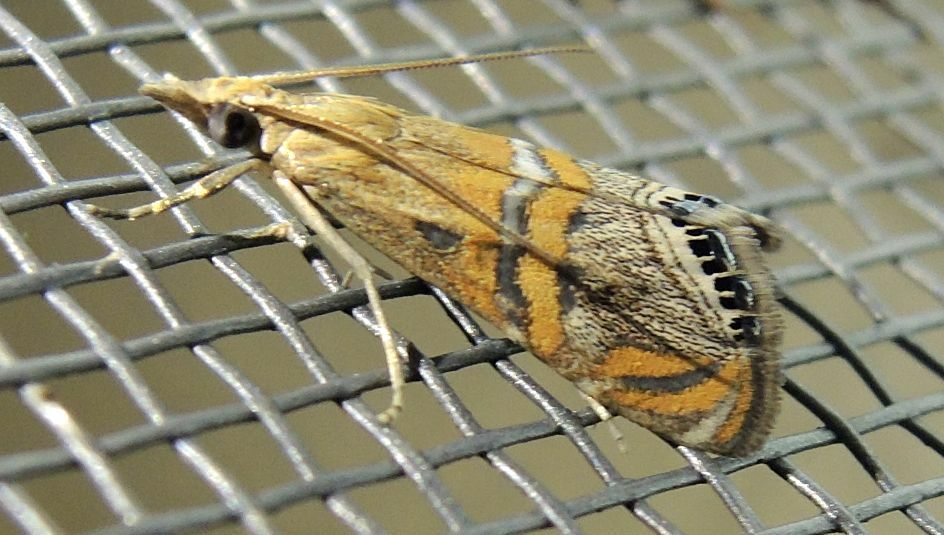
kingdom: Animalia
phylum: Arthropoda
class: Insecta
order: Lepidoptera
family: Crambidae
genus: Euchromius
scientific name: Euchromius bella
